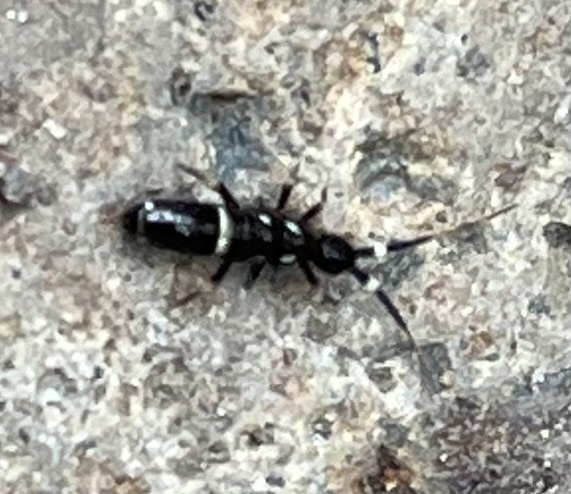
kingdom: Animalia
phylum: Arthropoda
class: Collembola
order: Entomobryomorpha
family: Orchesellidae
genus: Orchesella
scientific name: Orchesella cincta
